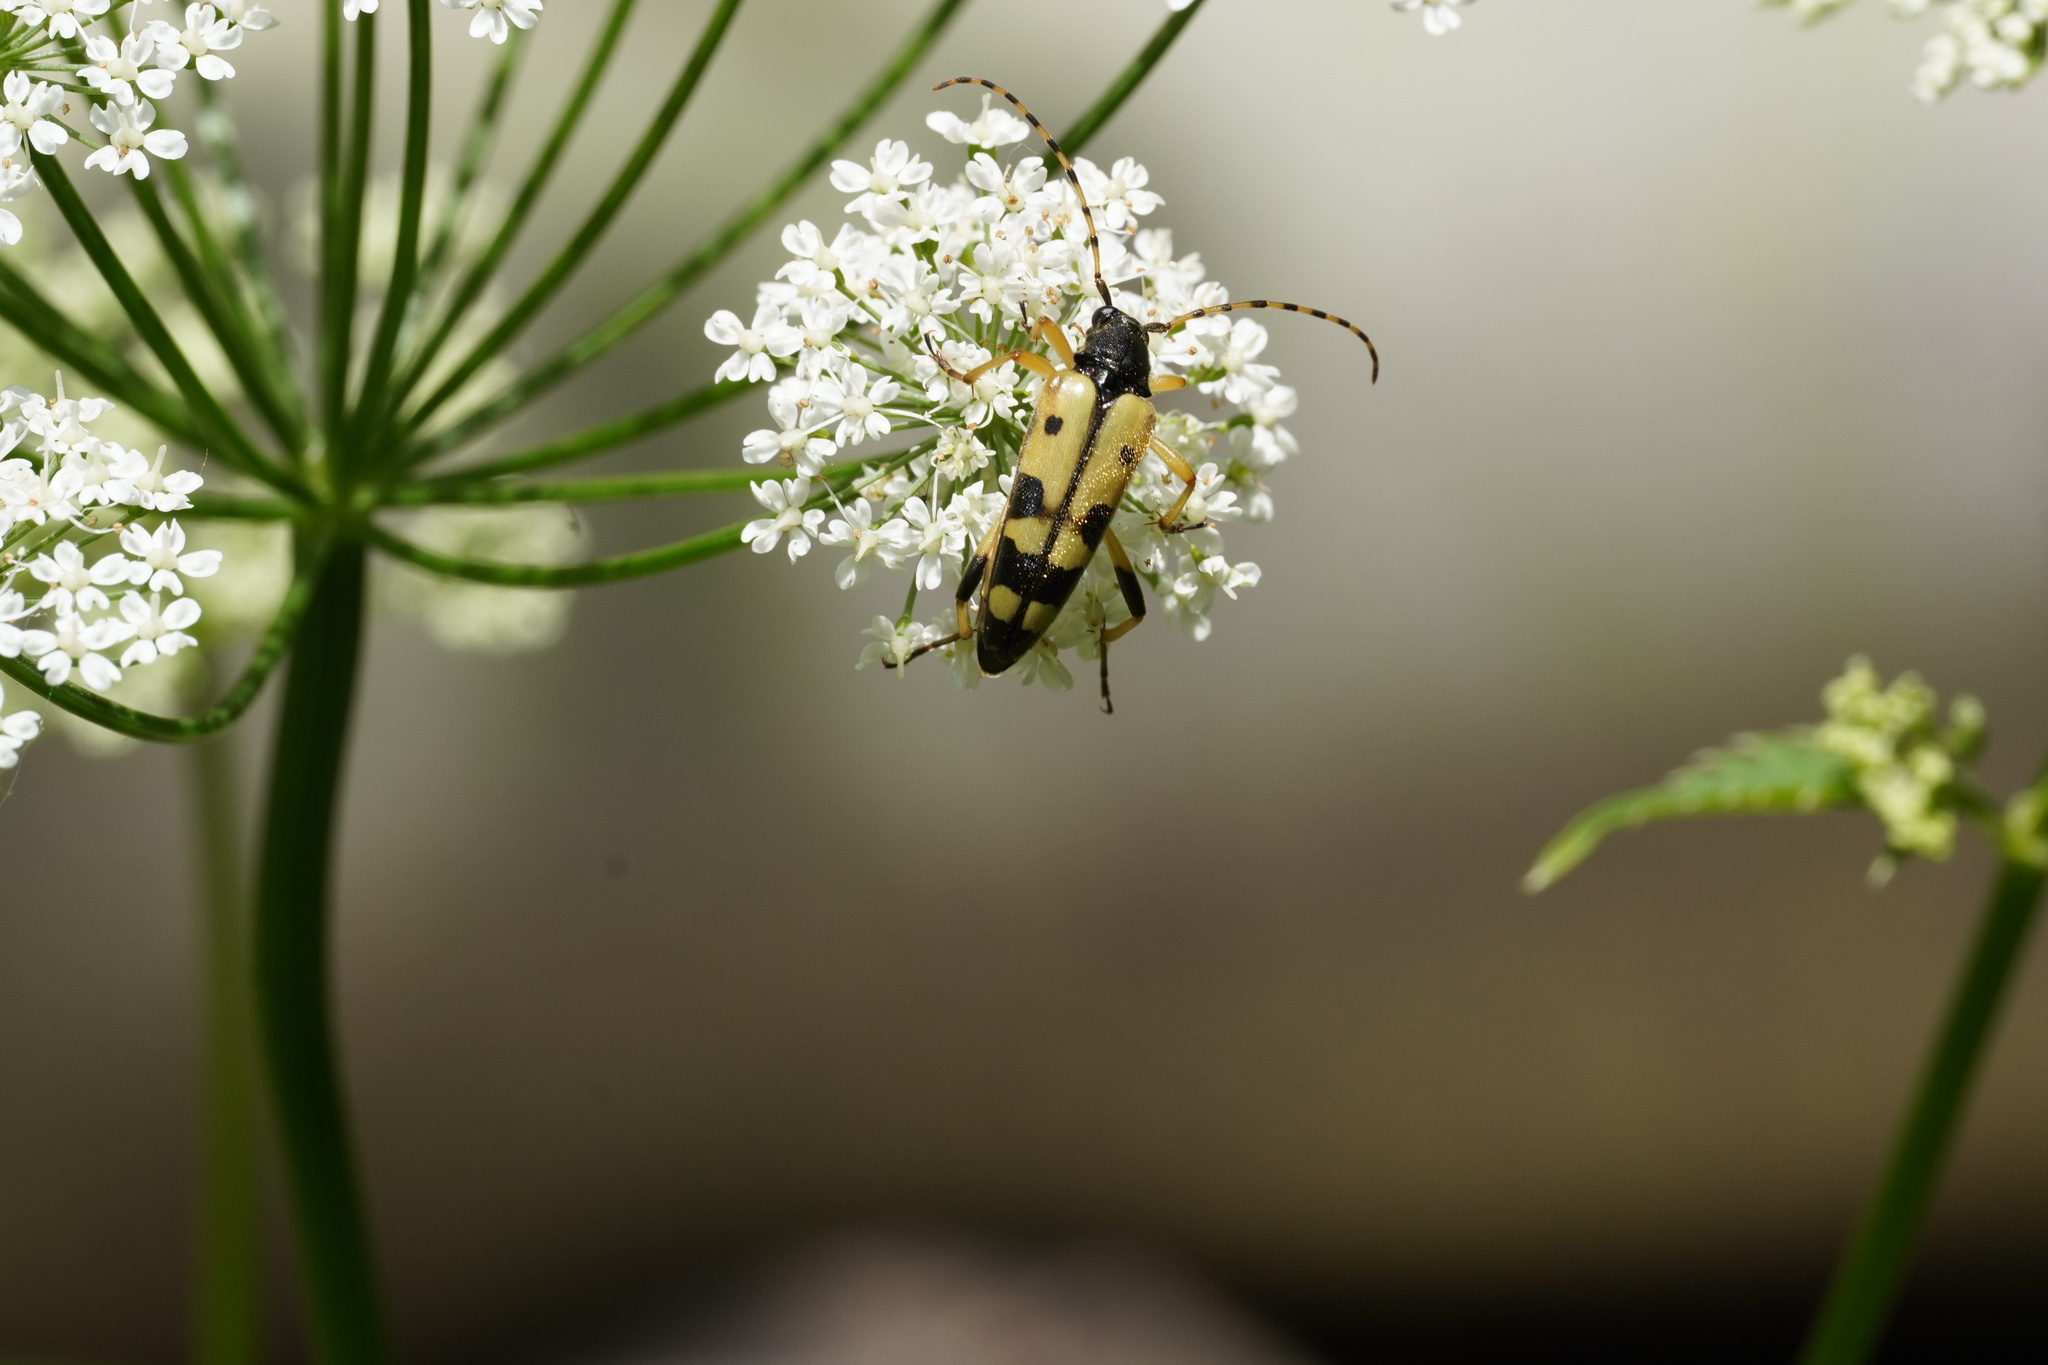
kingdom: Animalia
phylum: Arthropoda
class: Insecta
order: Coleoptera
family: Cerambycidae
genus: Rutpela
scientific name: Rutpela maculata
